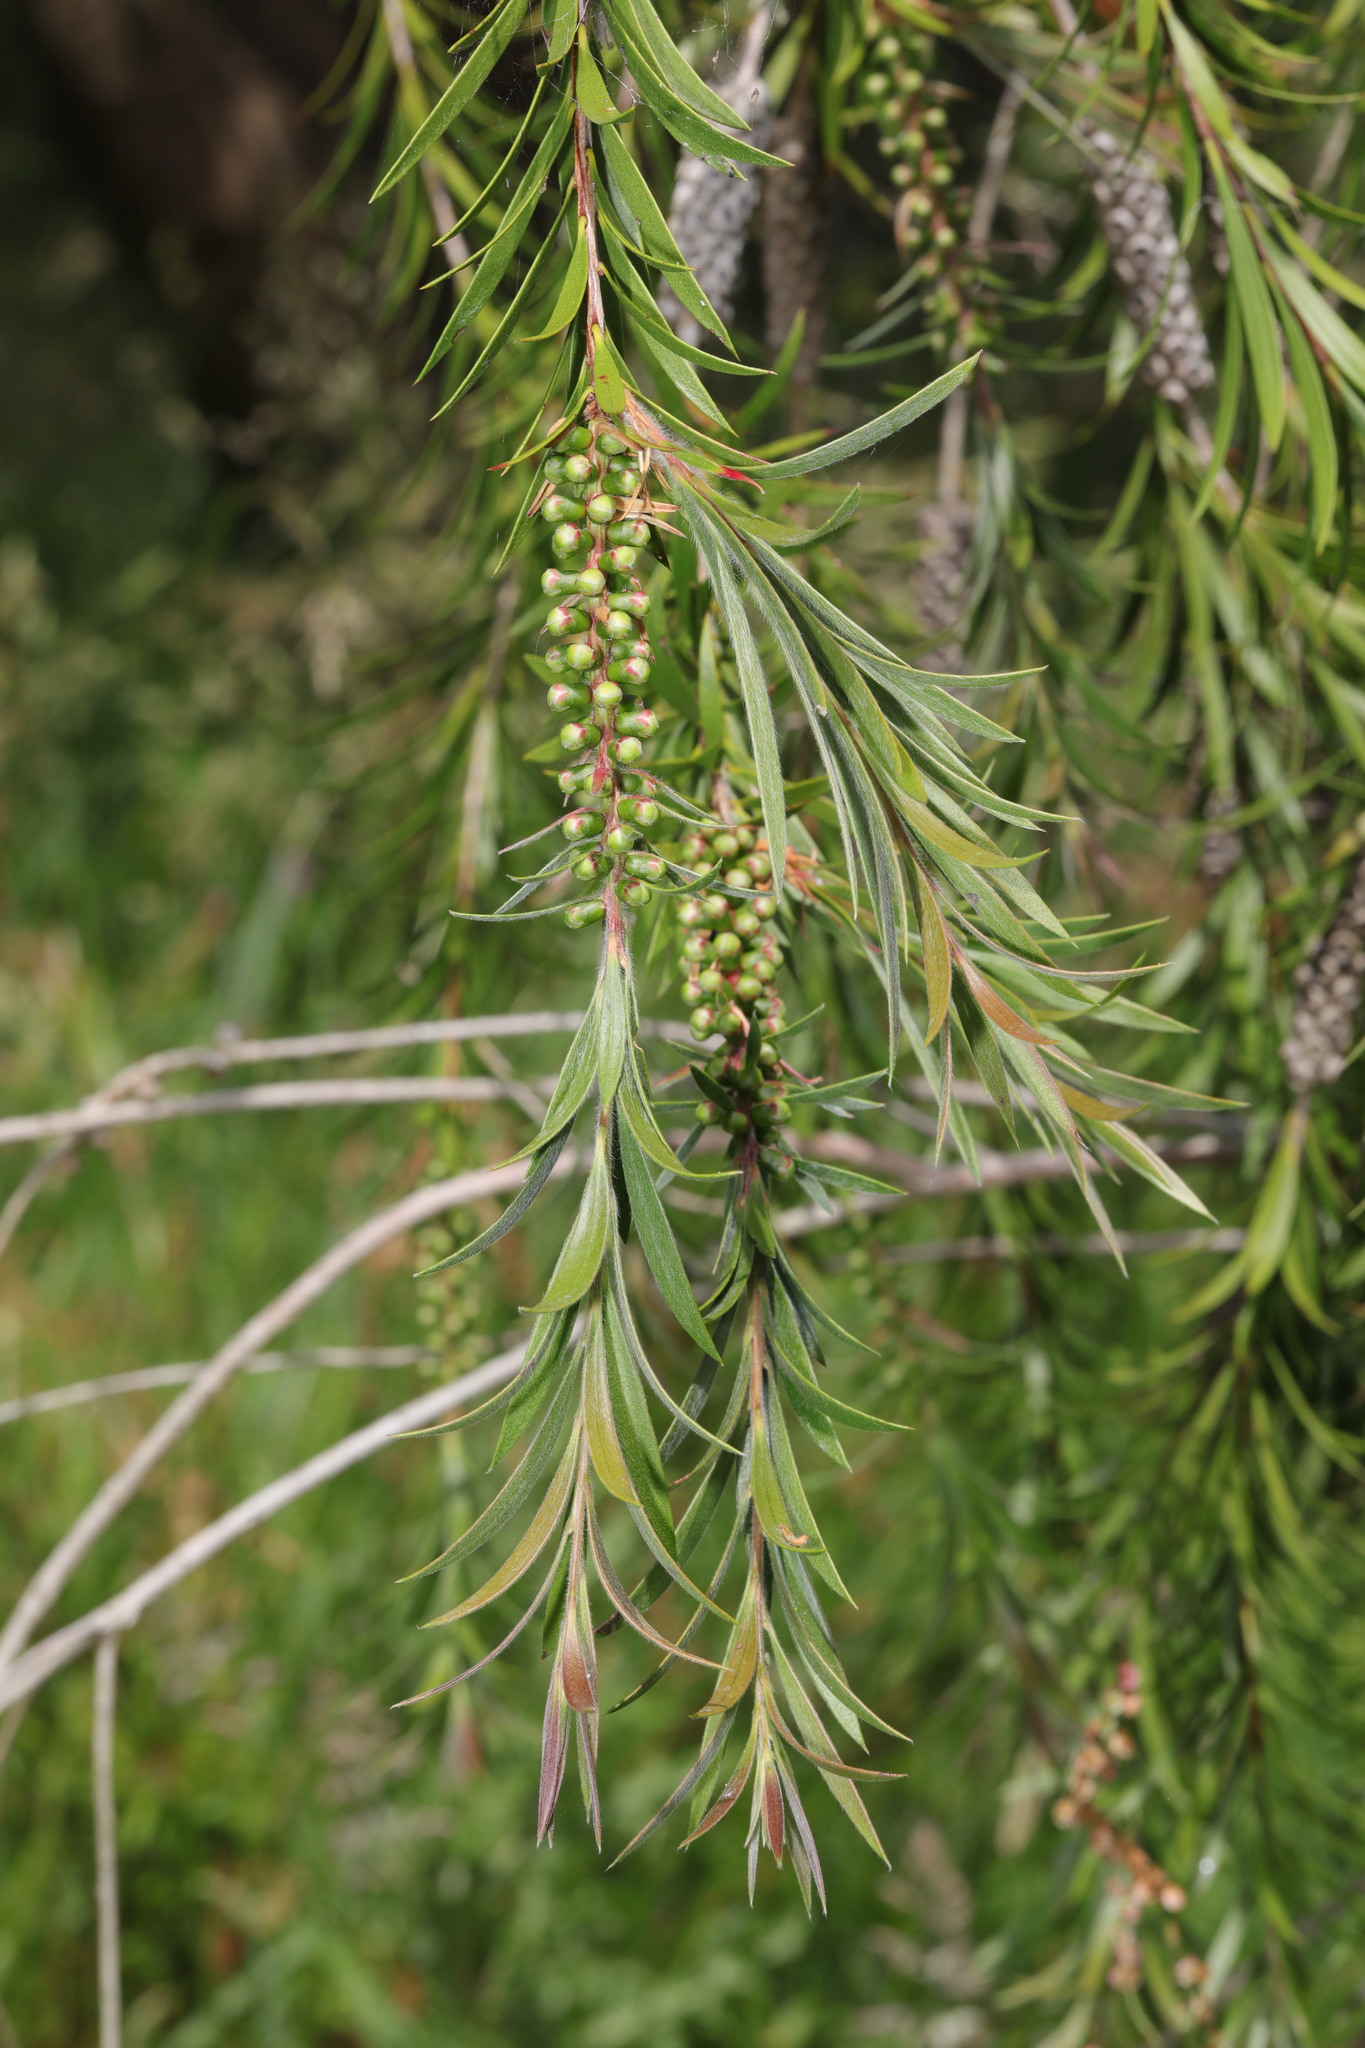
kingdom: Plantae
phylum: Tracheophyta
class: Magnoliopsida
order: Myrtales
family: Myrtaceae
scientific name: Myrtaceae
